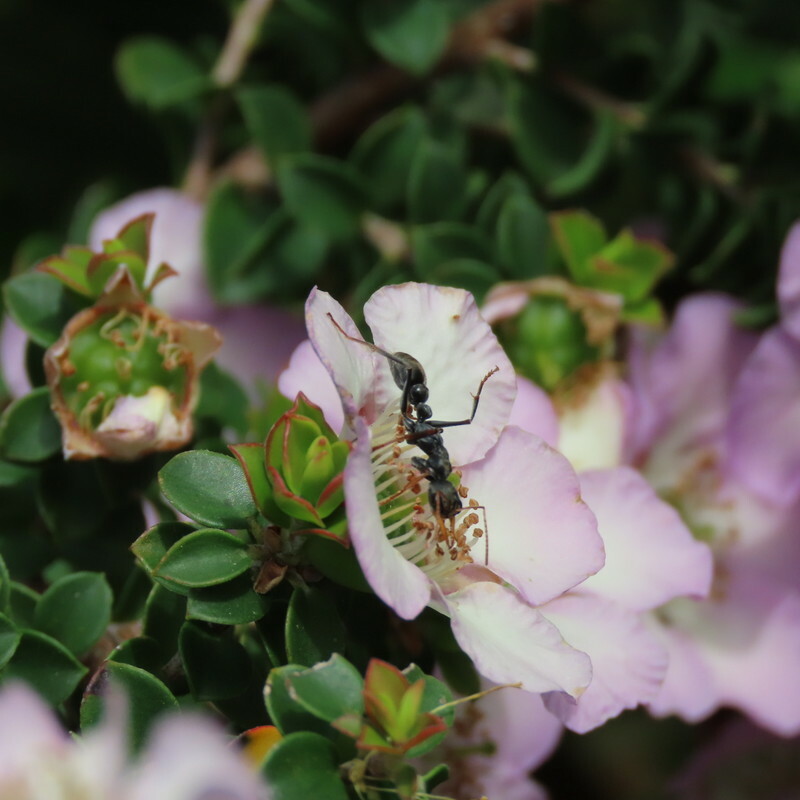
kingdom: Animalia
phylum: Arthropoda
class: Insecta
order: Hymenoptera
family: Formicidae
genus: Myrmecia
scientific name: Myrmecia pilosula
